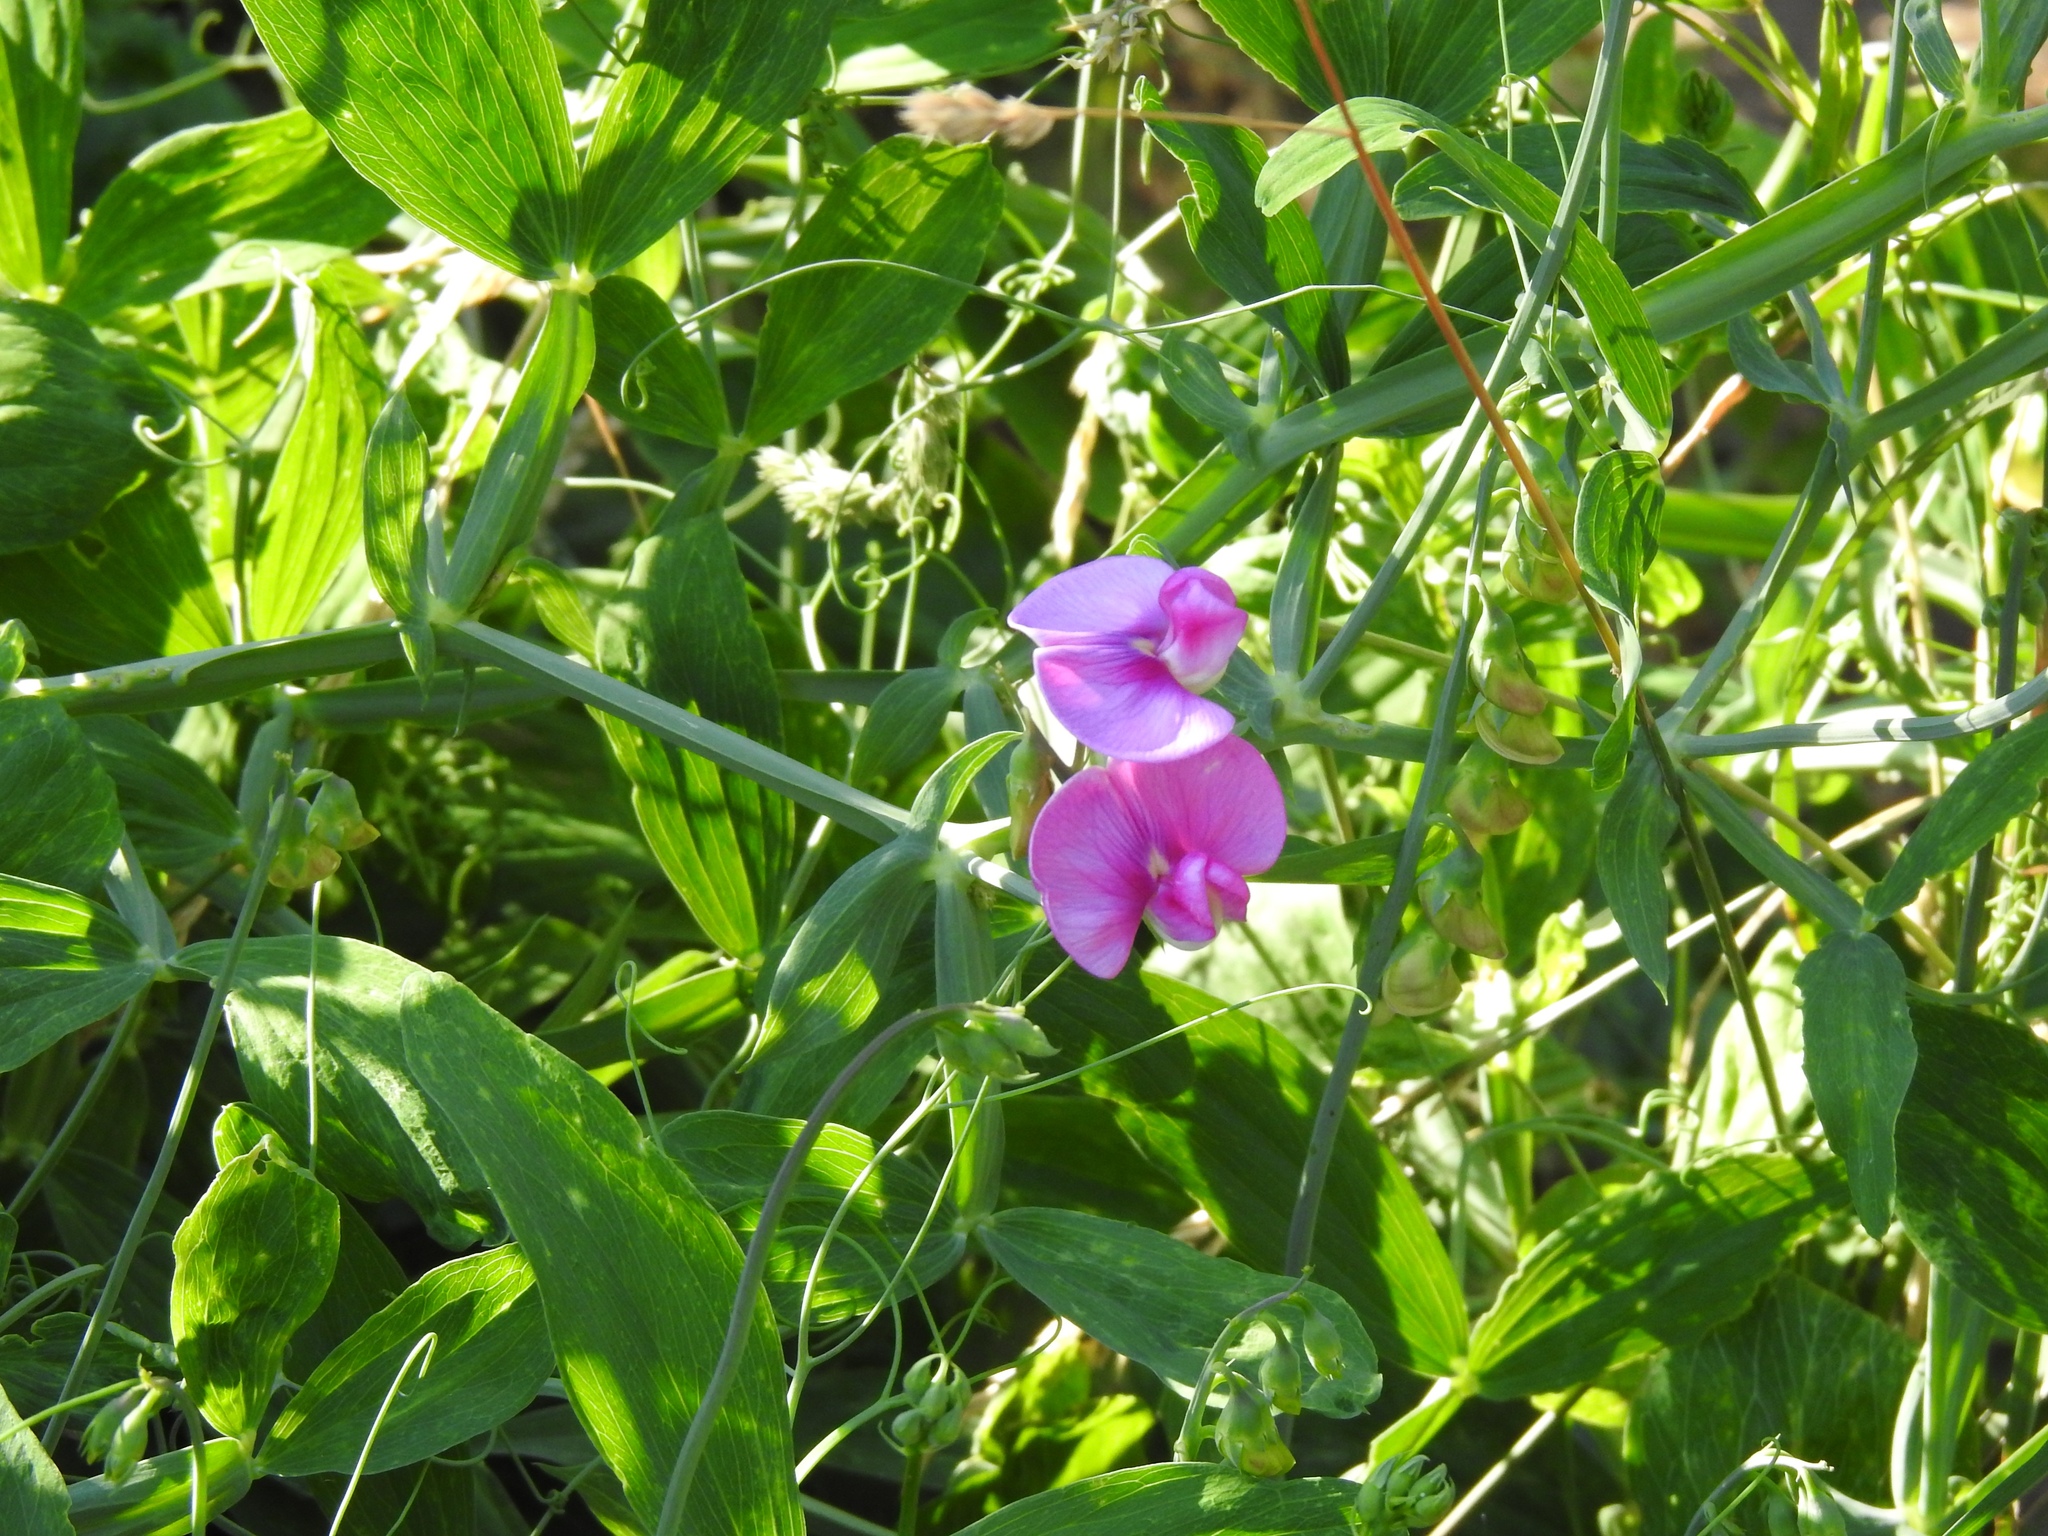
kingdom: Plantae
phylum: Tracheophyta
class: Magnoliopsida
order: Fabales
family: Fabaceae
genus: Lathyrus
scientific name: Lathyrus latifolius
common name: Perennial pea
